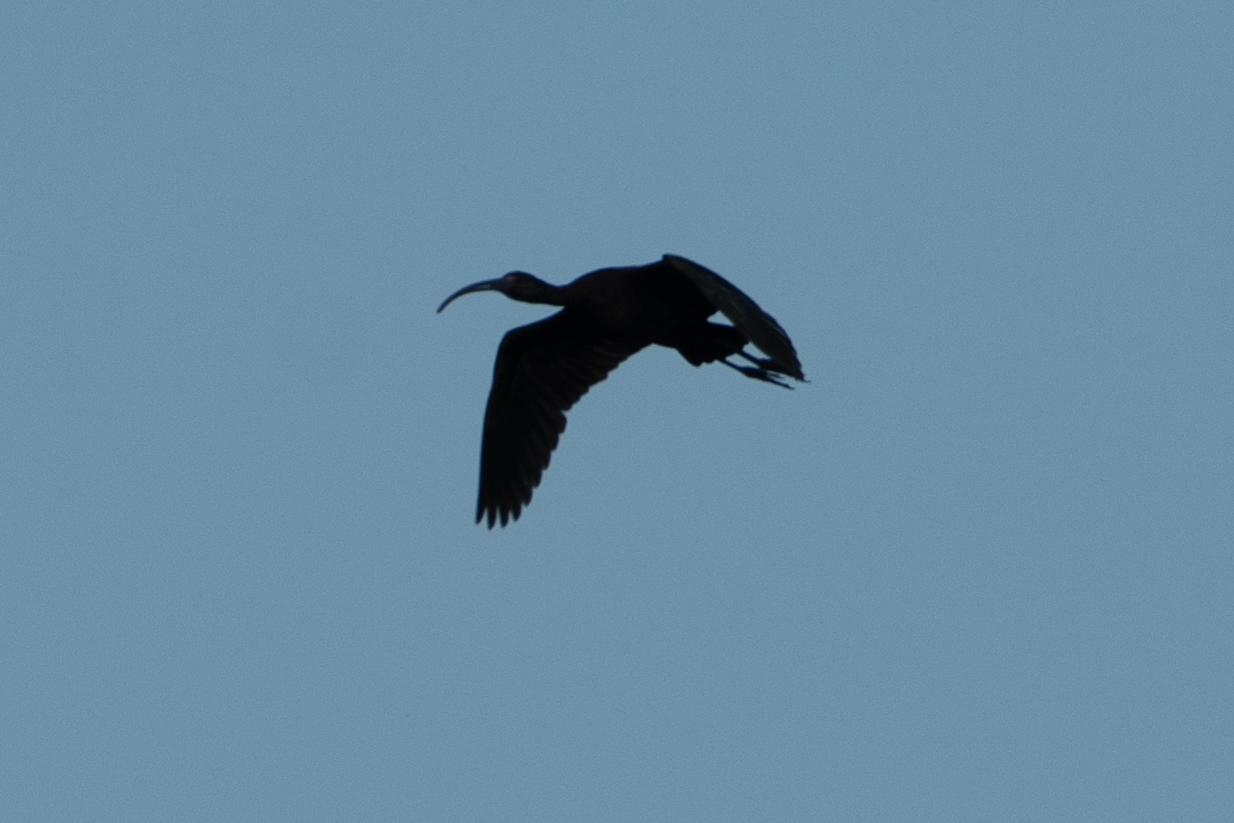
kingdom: Animalia
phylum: Chordata
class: Aves
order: Pelecaniformes
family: Threskiornithidae
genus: Plegadis
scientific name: Plegadis chihi
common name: White-faced ibis
